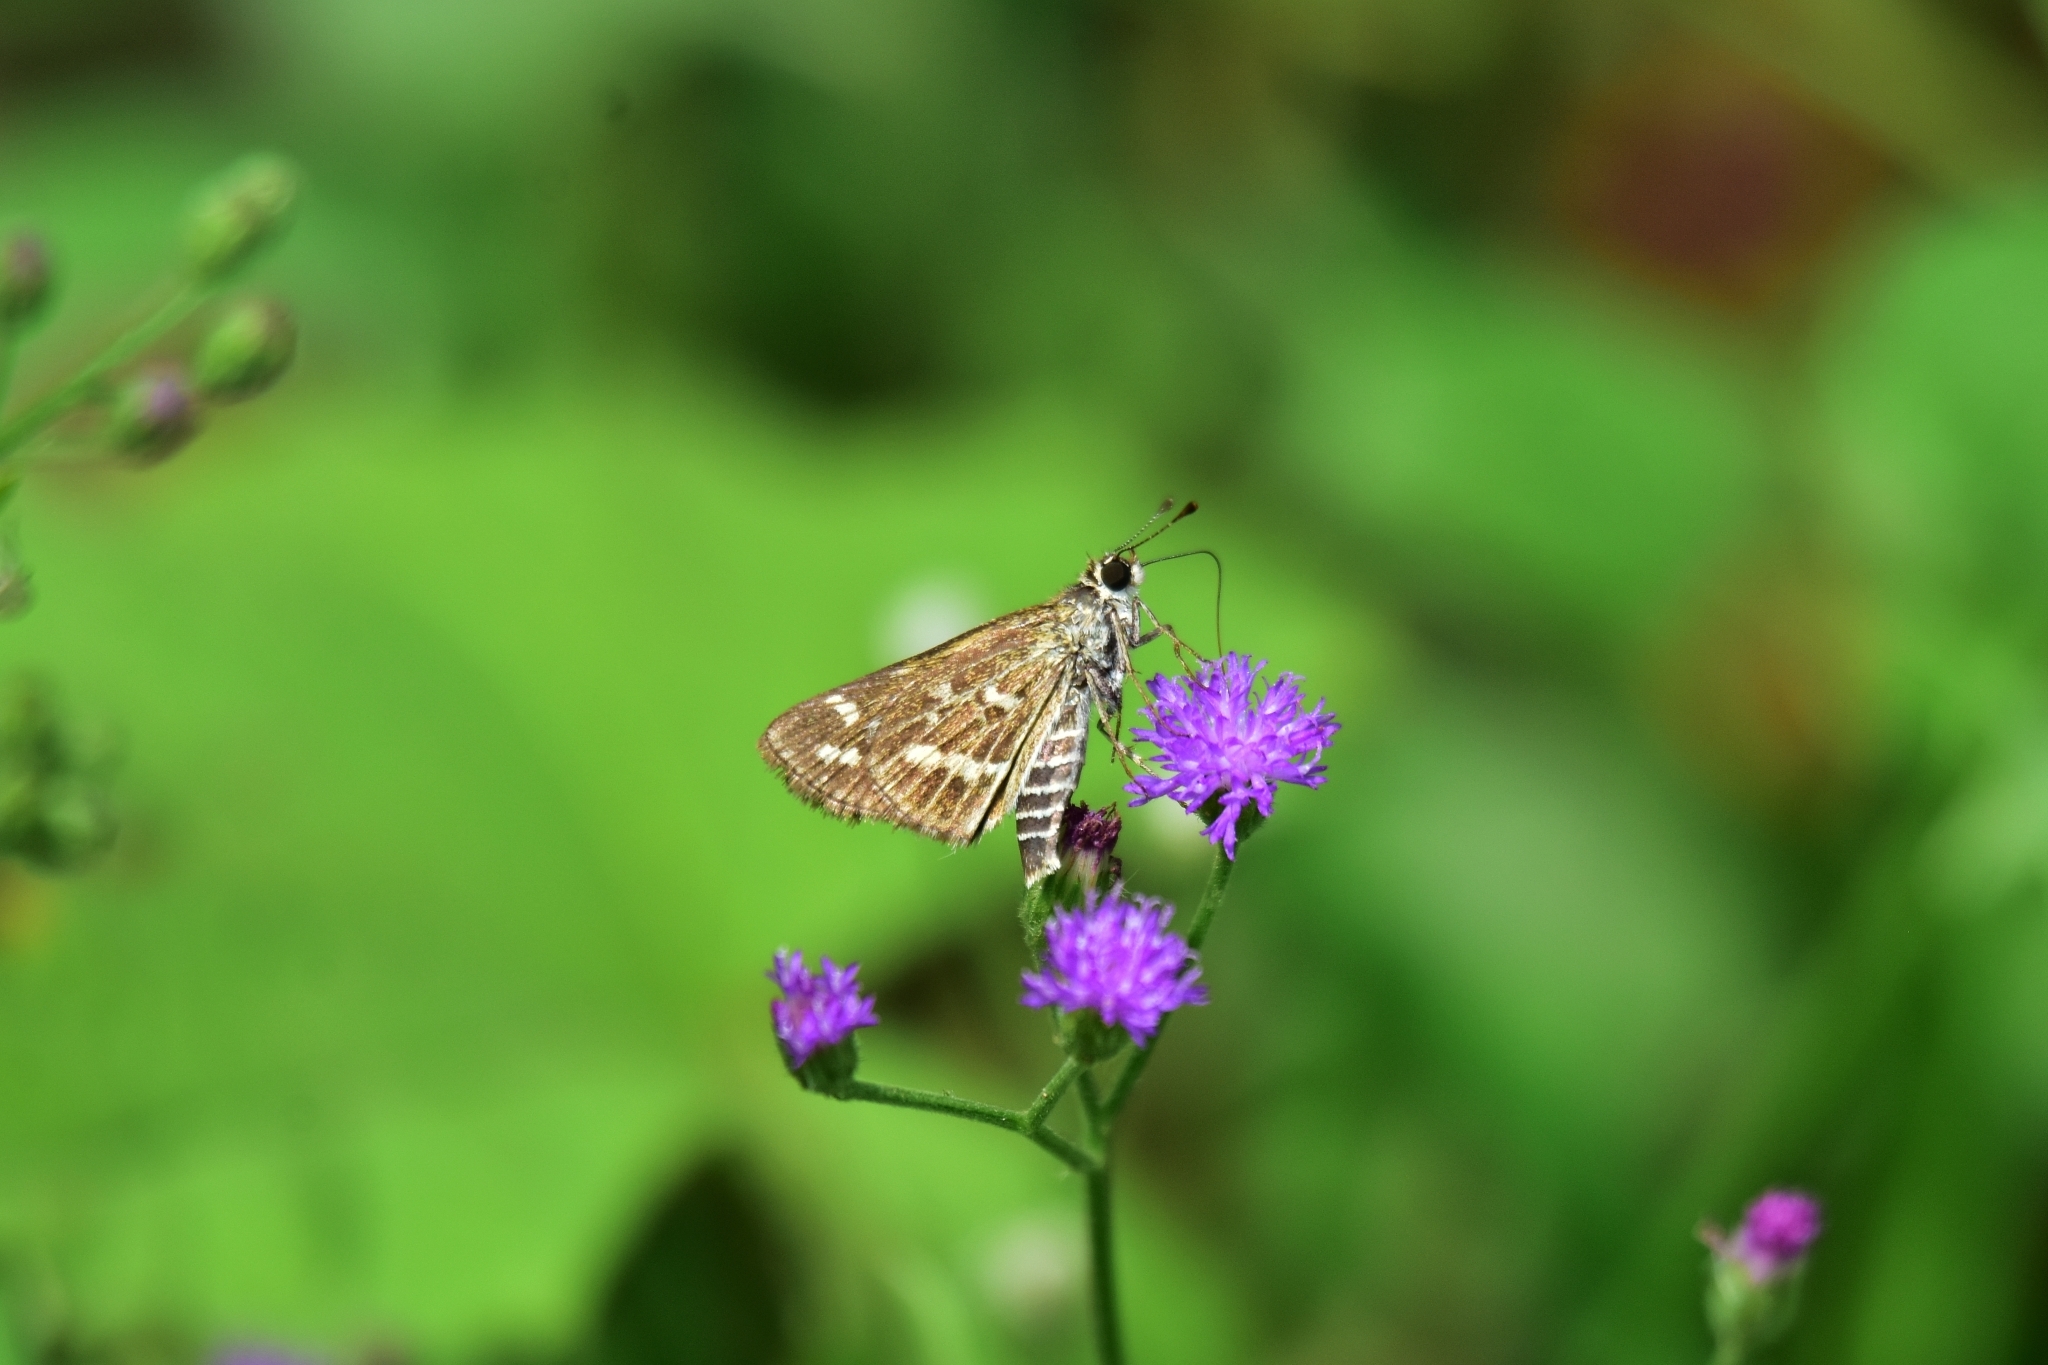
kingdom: Animalia
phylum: Arthropoda
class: Insecta
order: Lepidoptera
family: Hesperiidae
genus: Taractrocera
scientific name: Taractrocera maevius
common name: Common grass-dart
